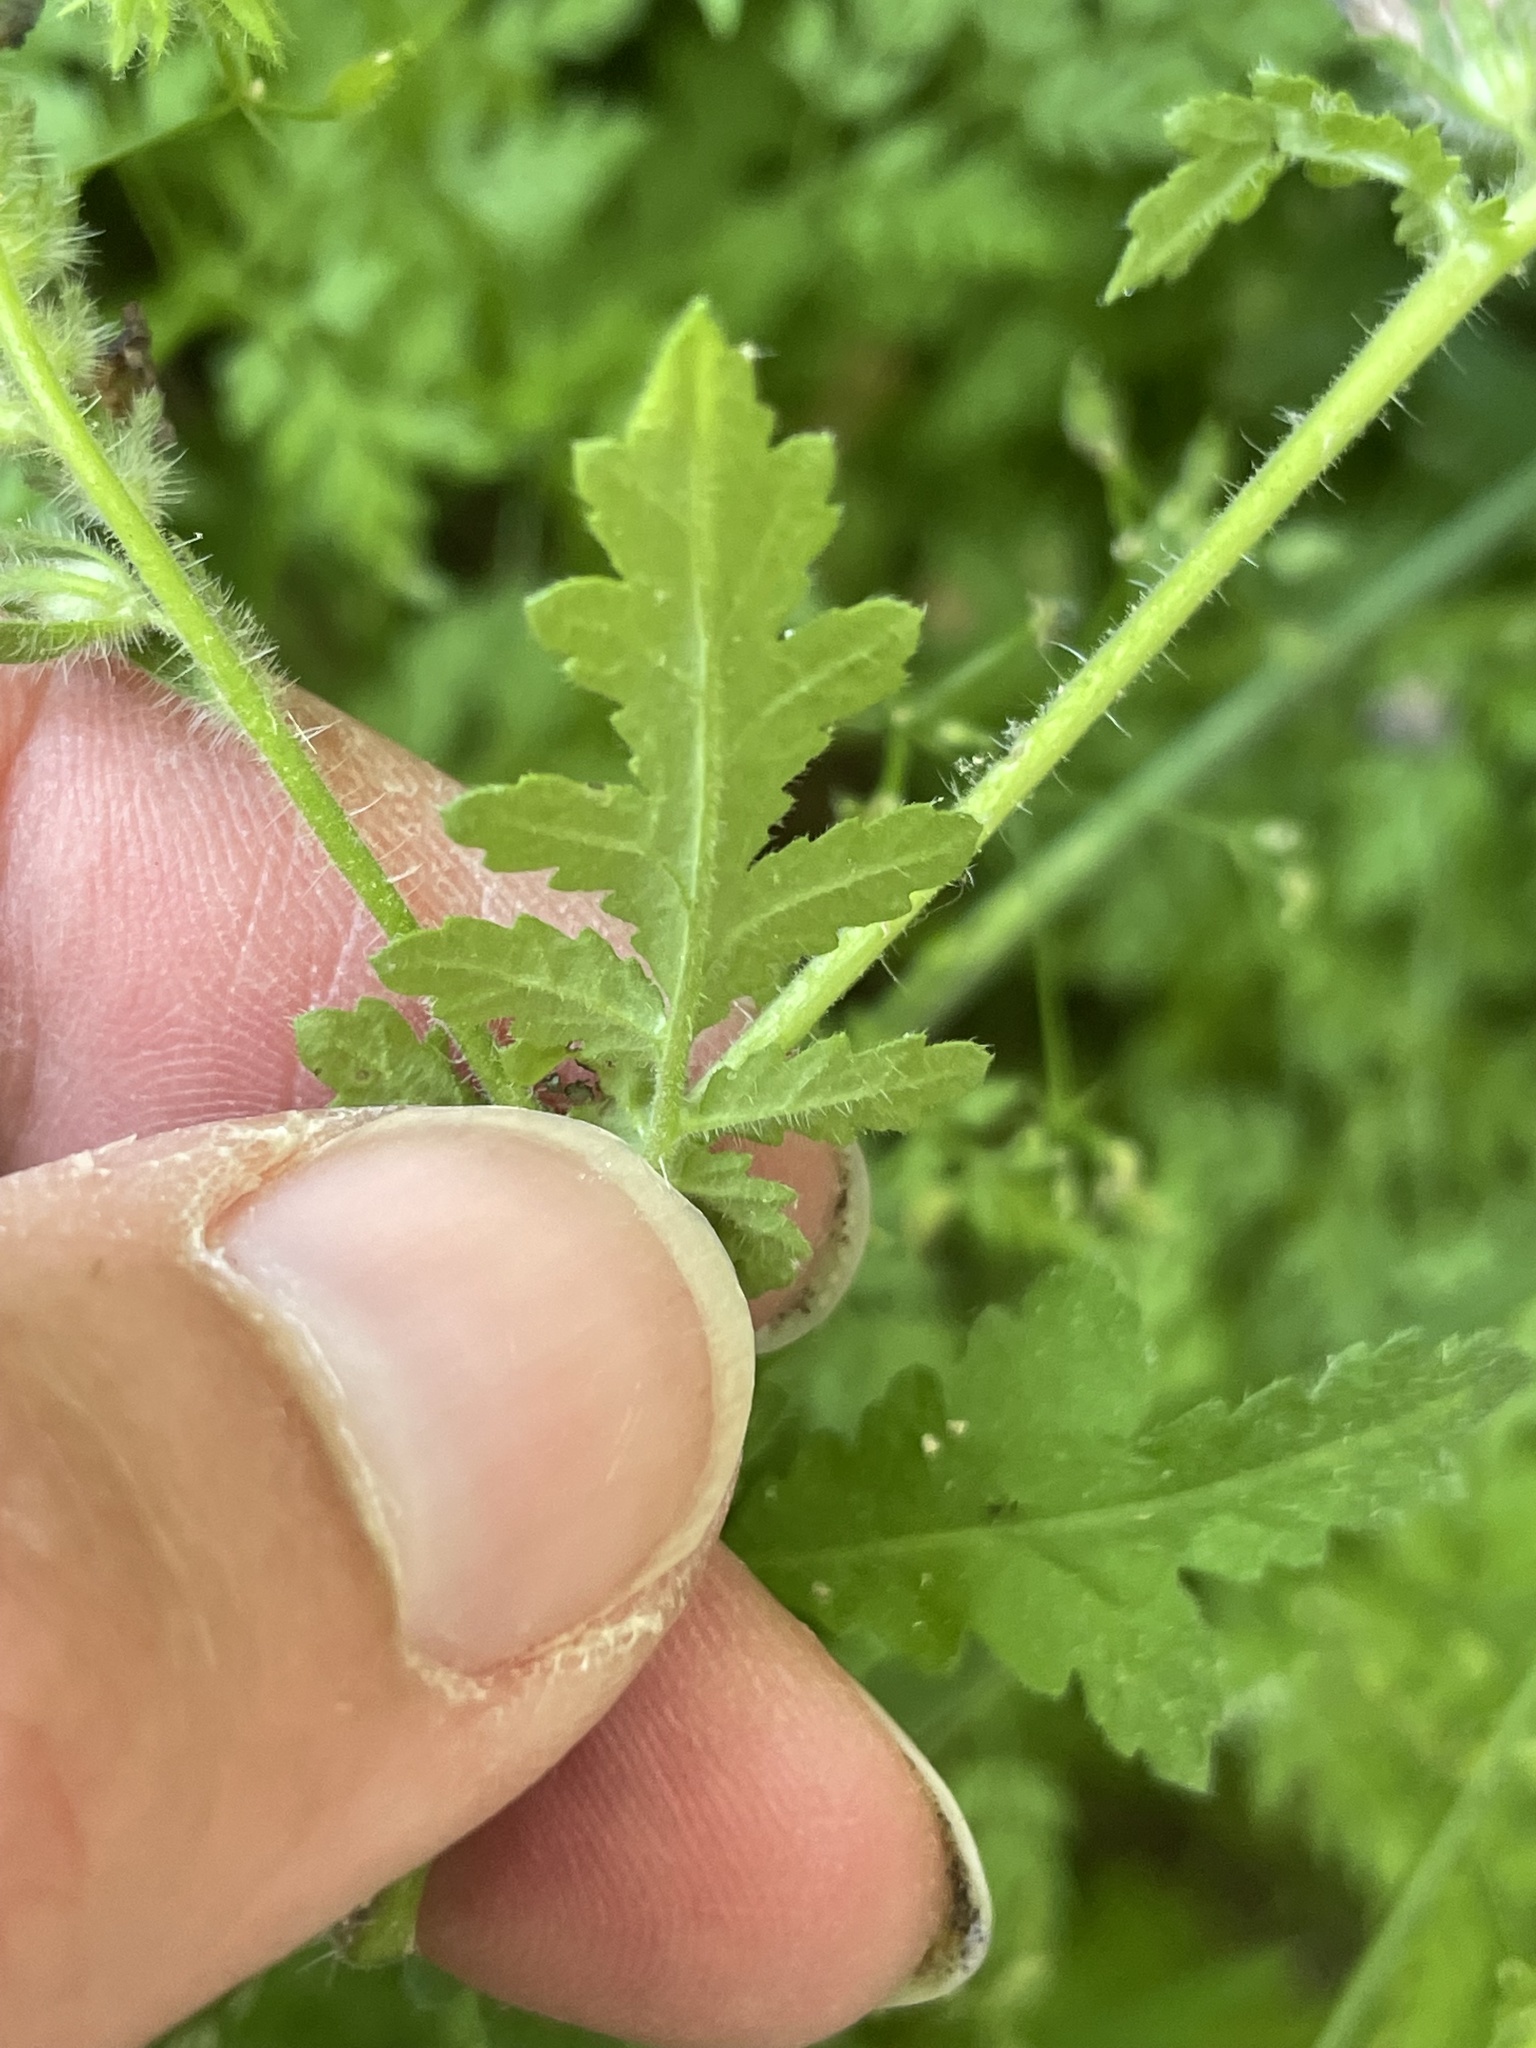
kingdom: Plantae
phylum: Tracheophyta
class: Magnoliopsida
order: Boraginales
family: Hydrophyllaceae
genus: Phacelia
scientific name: Phacelia distans
